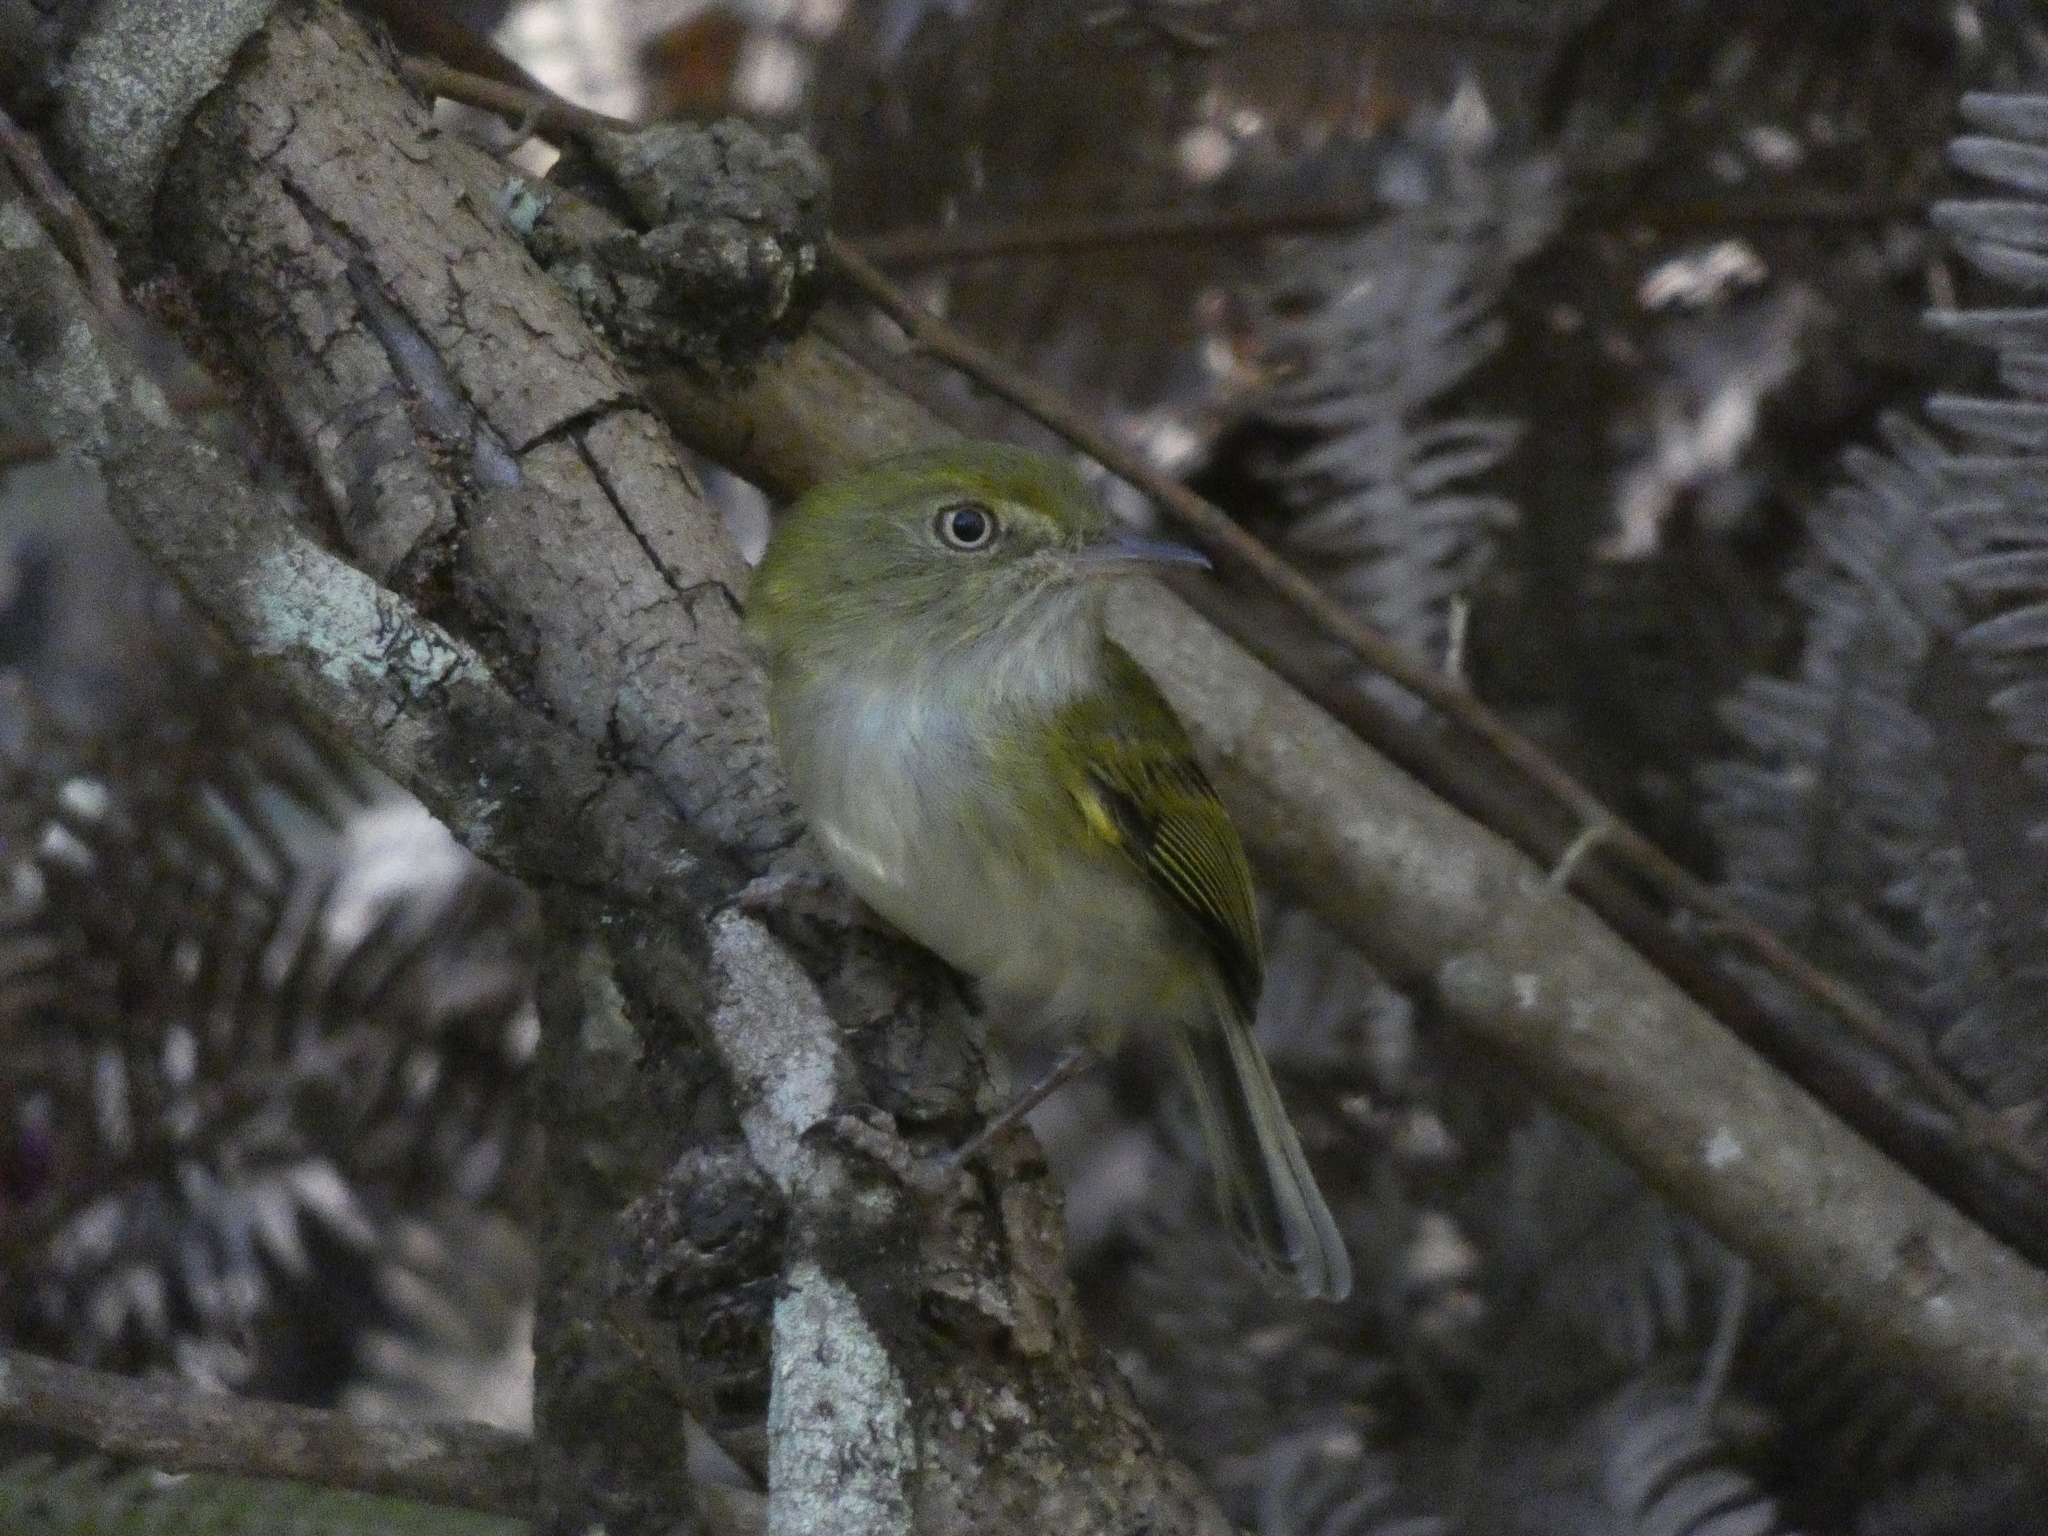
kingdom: Animalia
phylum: Chordata
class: Aves
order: Passeriformes
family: Tyrannidae
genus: Hemitriccus
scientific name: Hemitriccus nidipendulus
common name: Hangnest tody-tyrant
